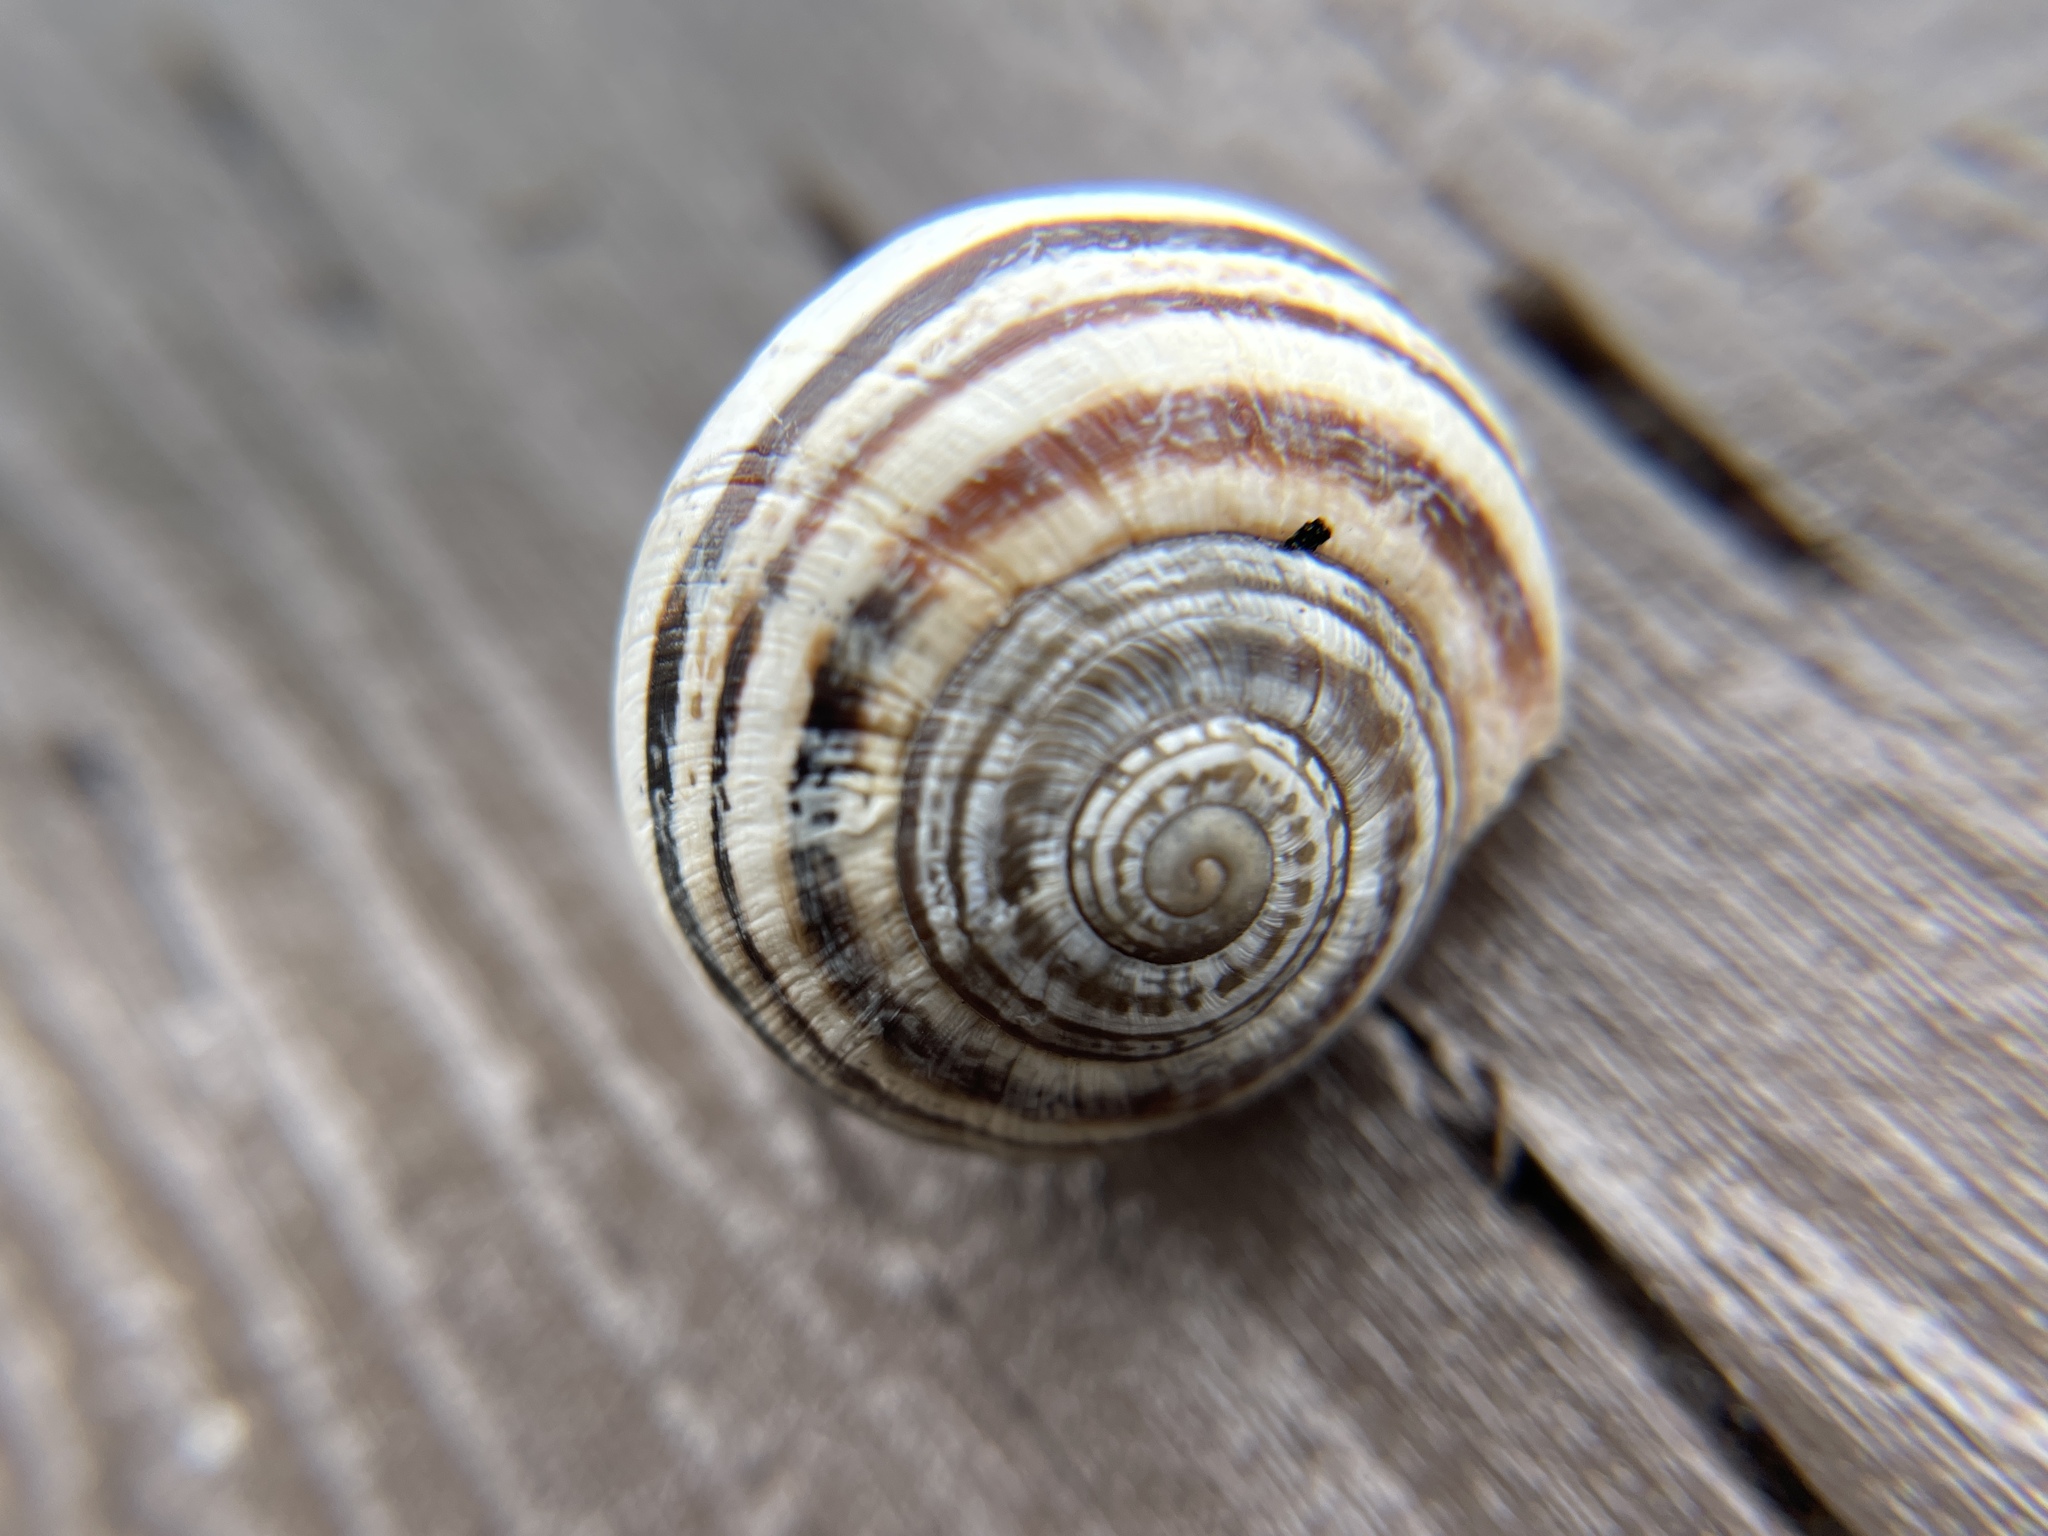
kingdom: Animalia
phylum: Mollusca
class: Gastropoda
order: Stylommatophora
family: Helicidae
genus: Otala
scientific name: Otala lactea
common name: Milk snail
